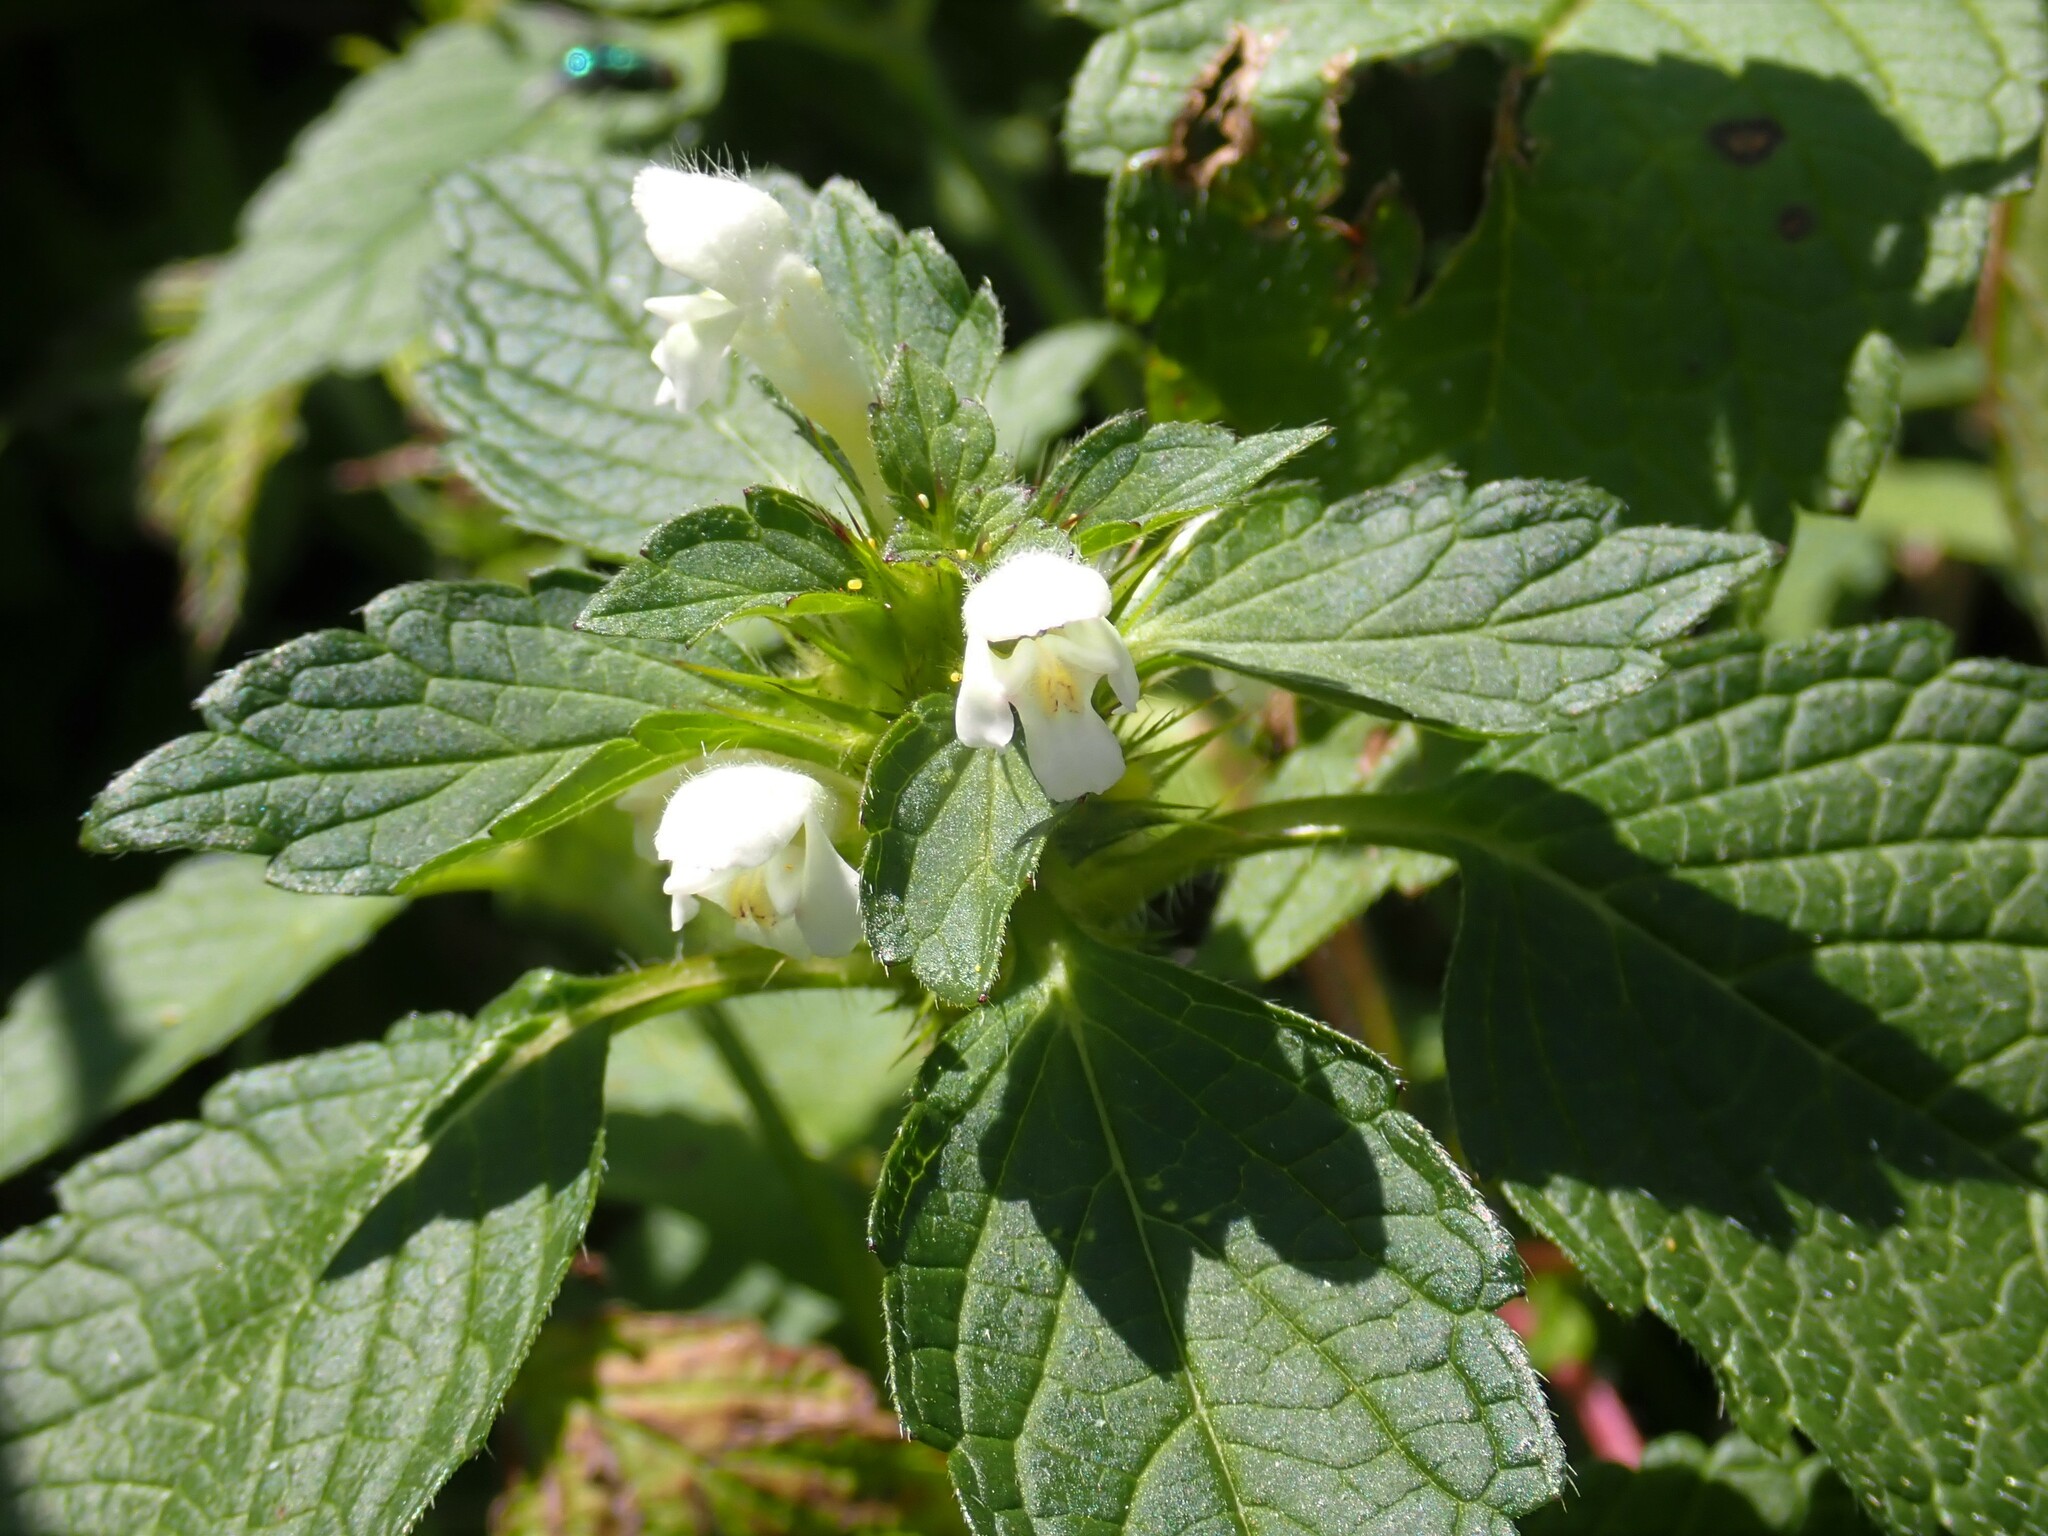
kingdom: Plantae
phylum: Tracheophyta
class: Magnoliopsida
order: Lamiales
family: Lamiaceae
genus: Galeopsis
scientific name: Galeopsis tetrahit
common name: Common hemp-nettle
